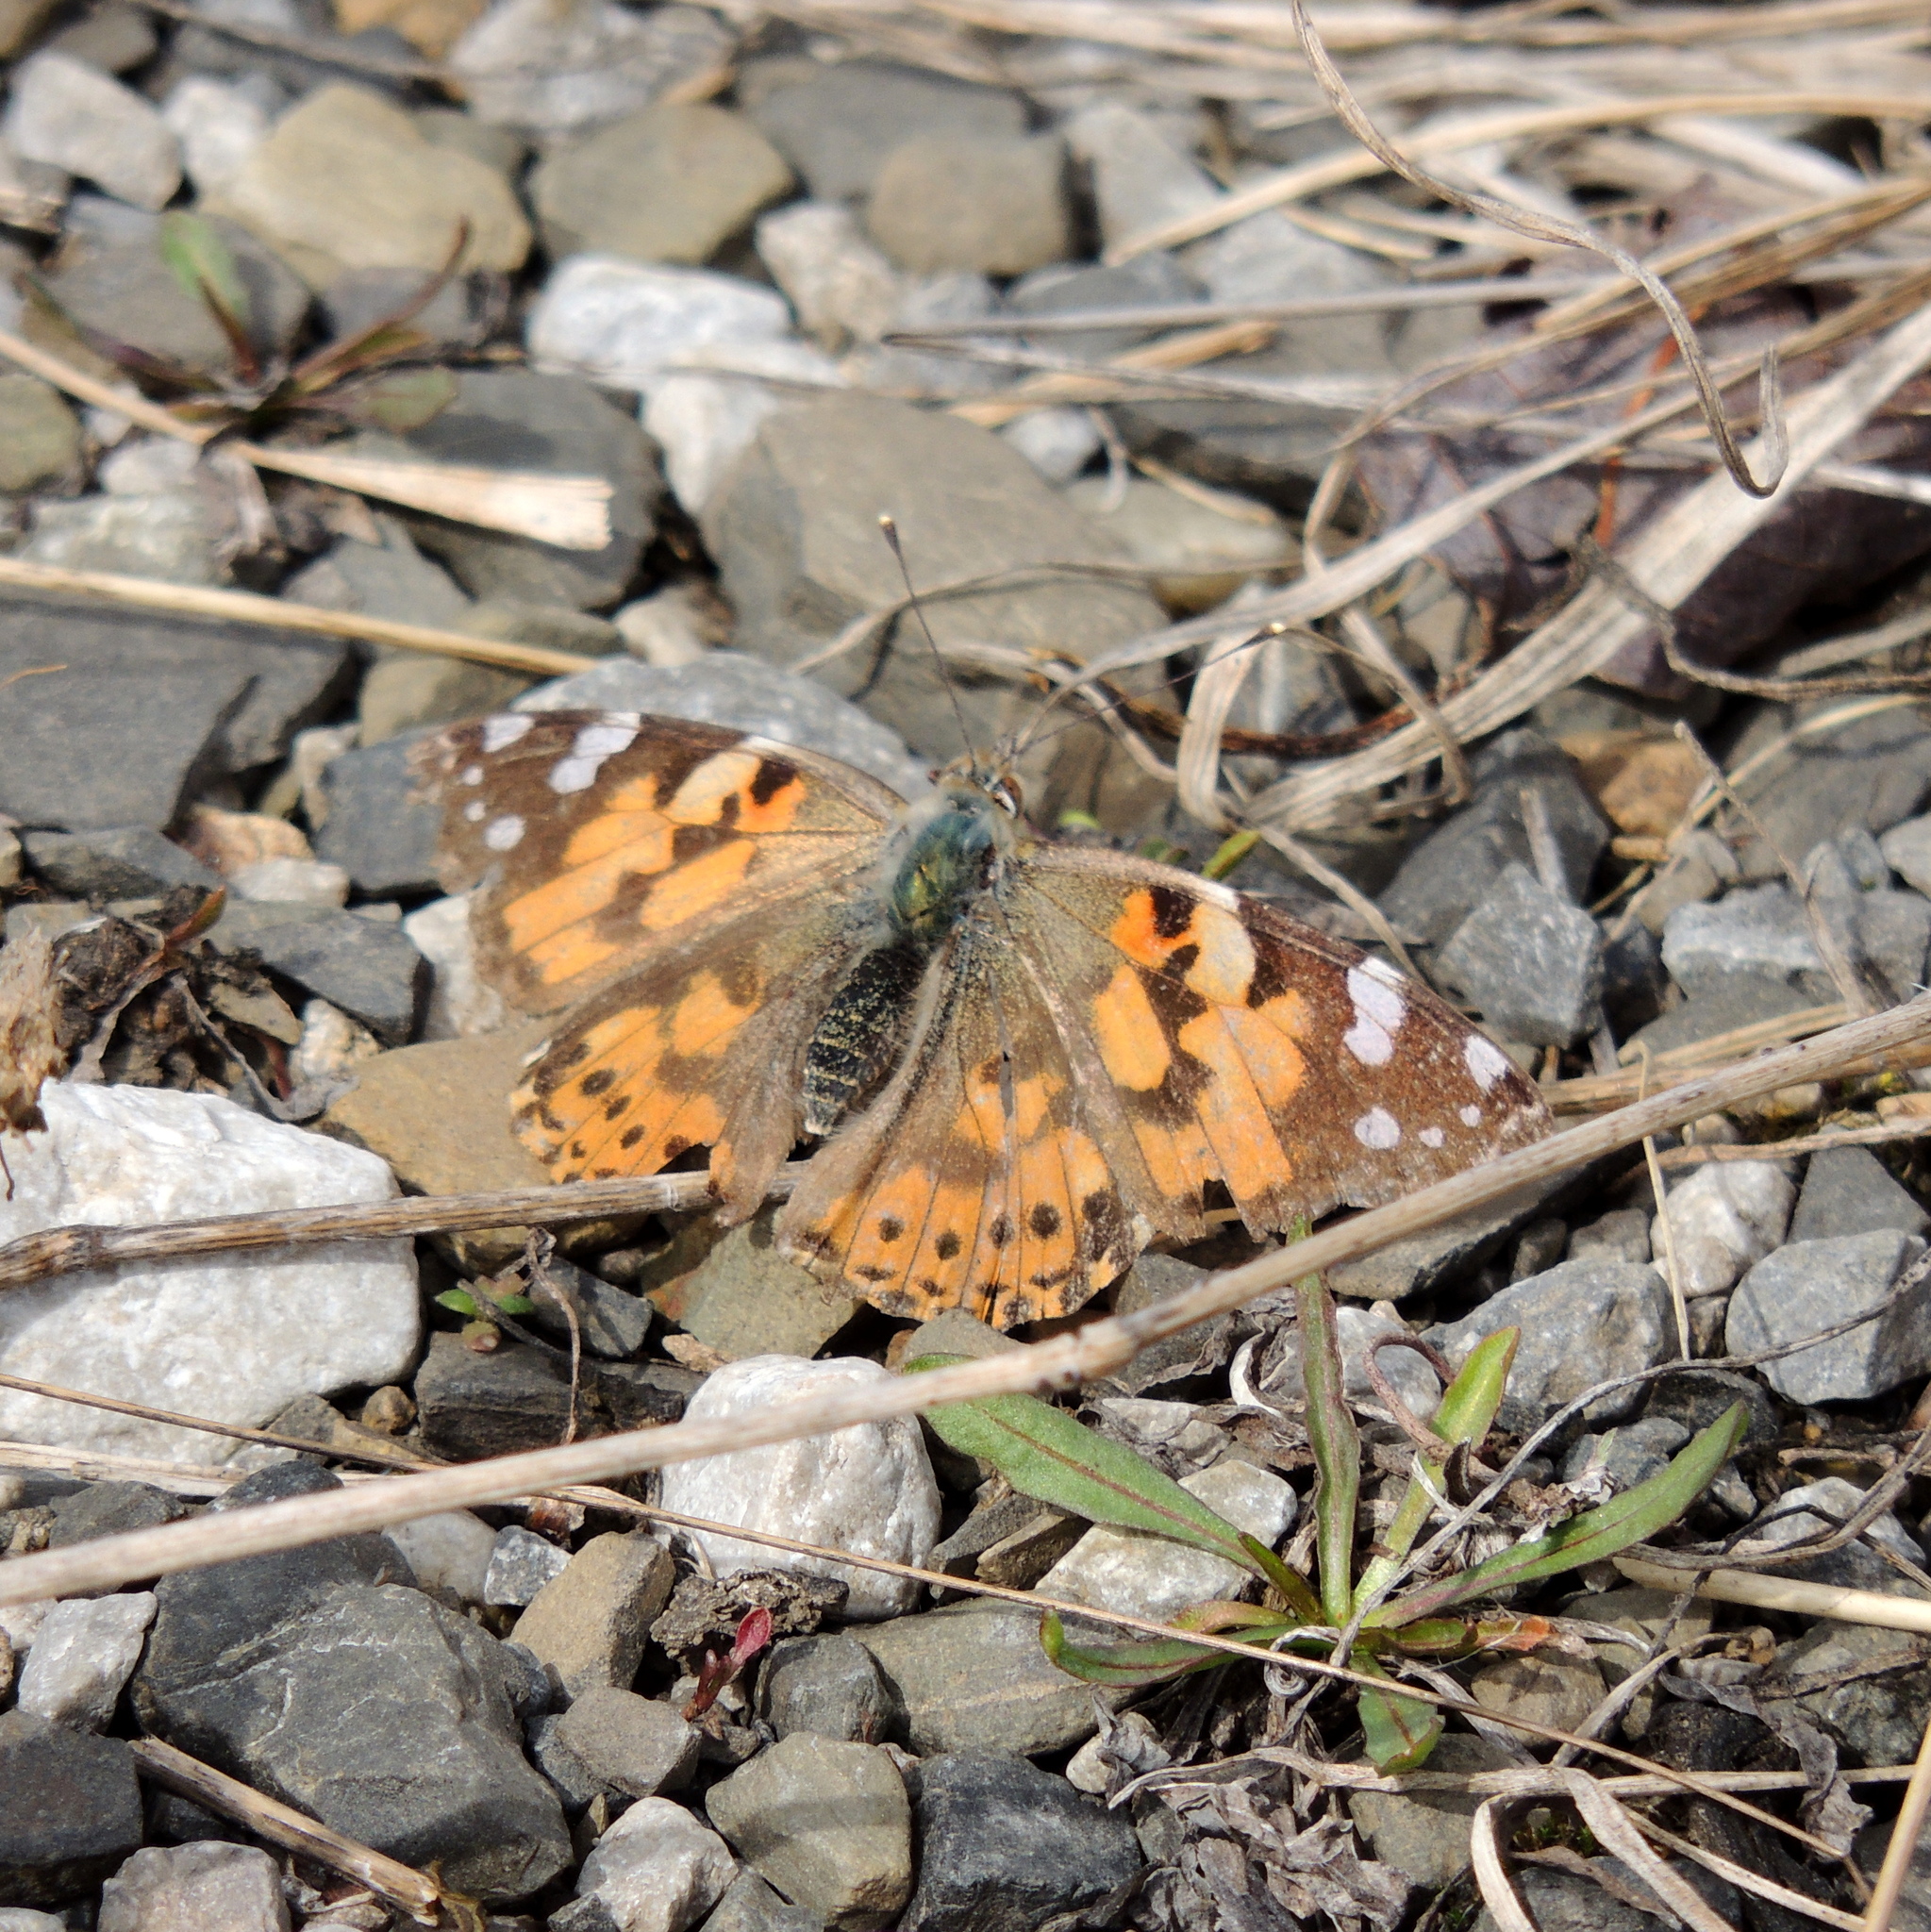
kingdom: Animalia
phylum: Arthropoda
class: Insecta
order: Lepidoptera
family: Nymphalidae
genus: Vanessa
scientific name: Vanessa cardui
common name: Painted lady
